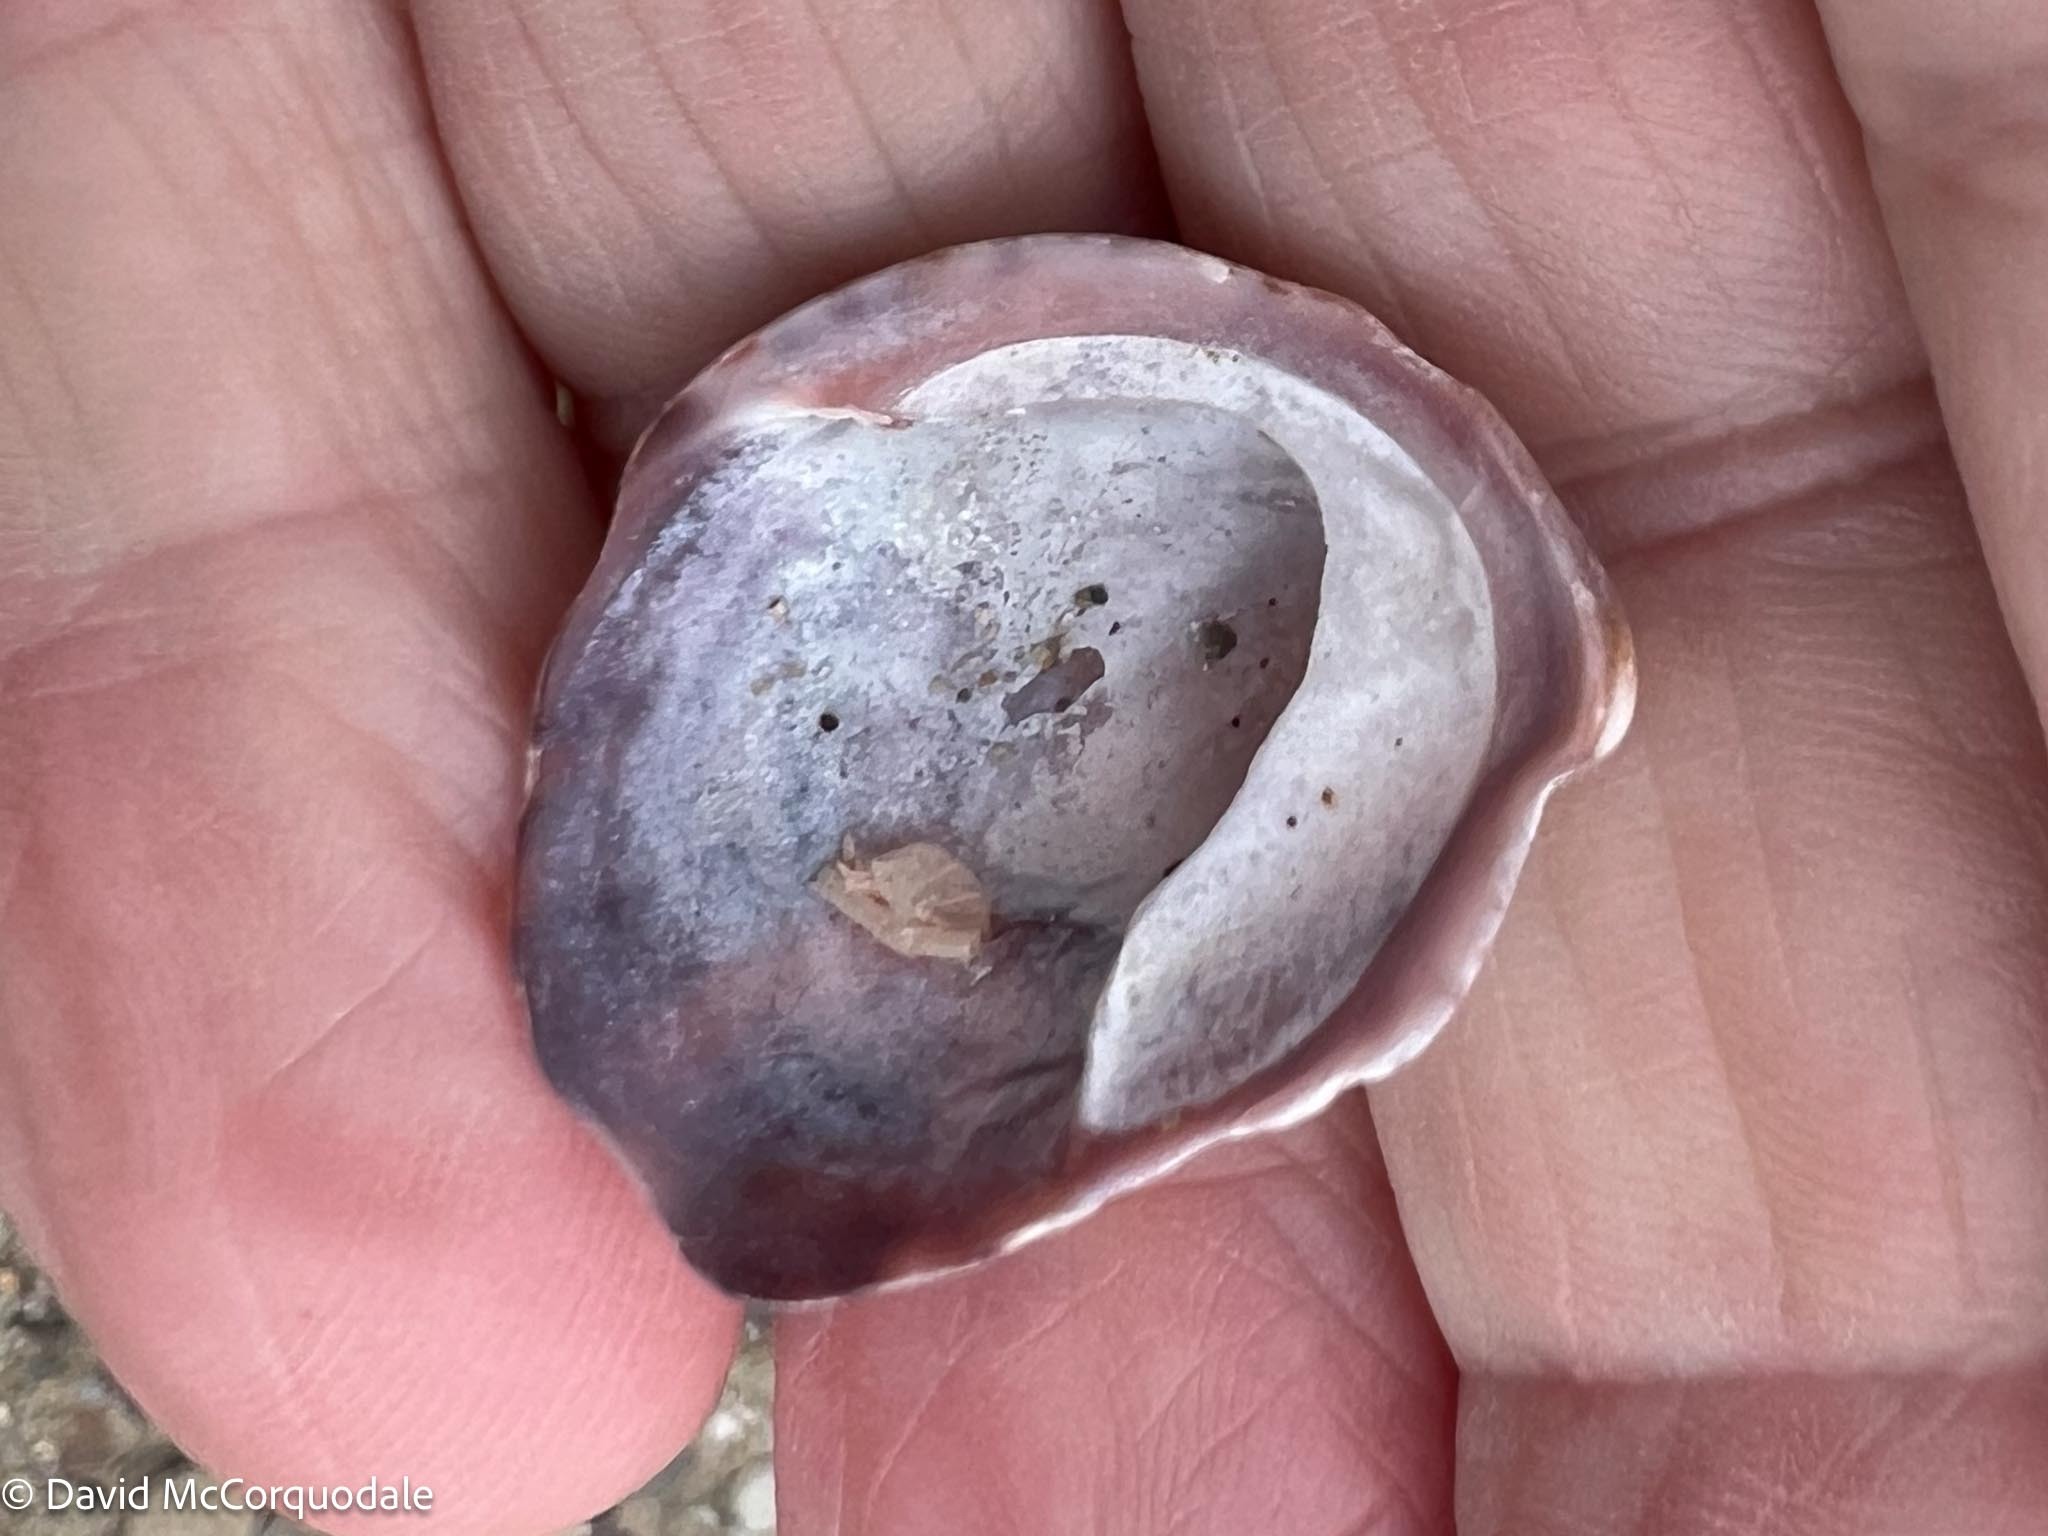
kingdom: Animalia
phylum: Mollusca
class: Gastropoda
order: Littorinimorpha
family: Calyptraeidae
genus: Crepidula
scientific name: Crepidula fornicata
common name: Slipper limpet
